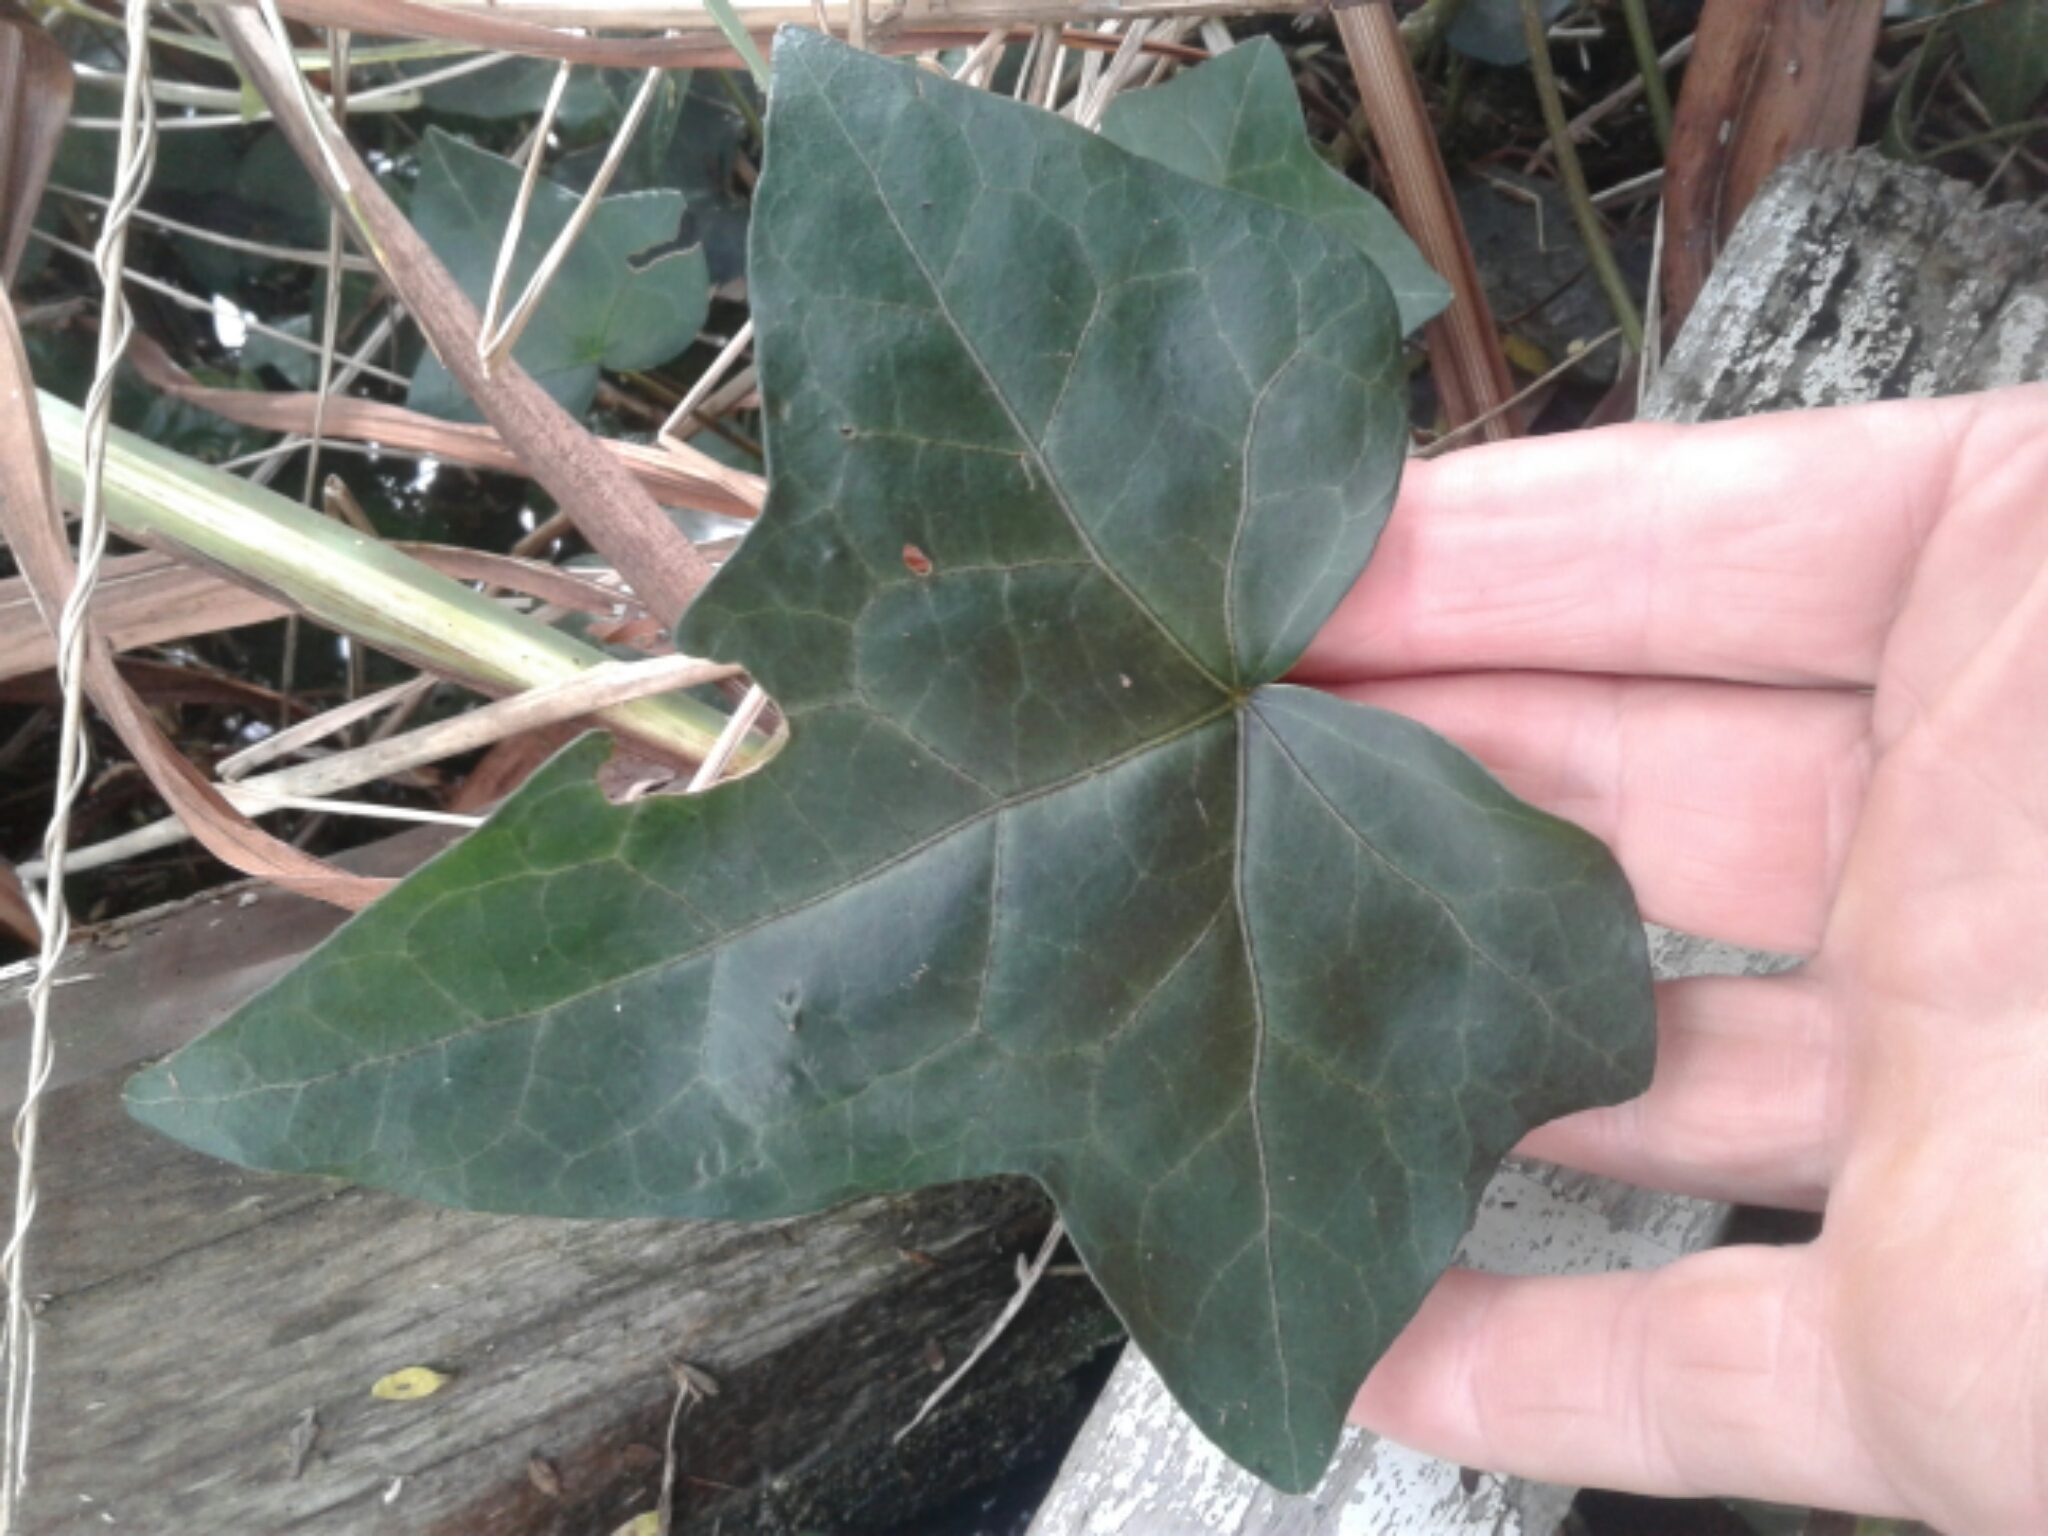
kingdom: Plantae
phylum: Tracheophyta
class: Magnoliopsida
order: Apiales
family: Araliaceae
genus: Hedera
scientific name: Hedera helix
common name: Ivy
